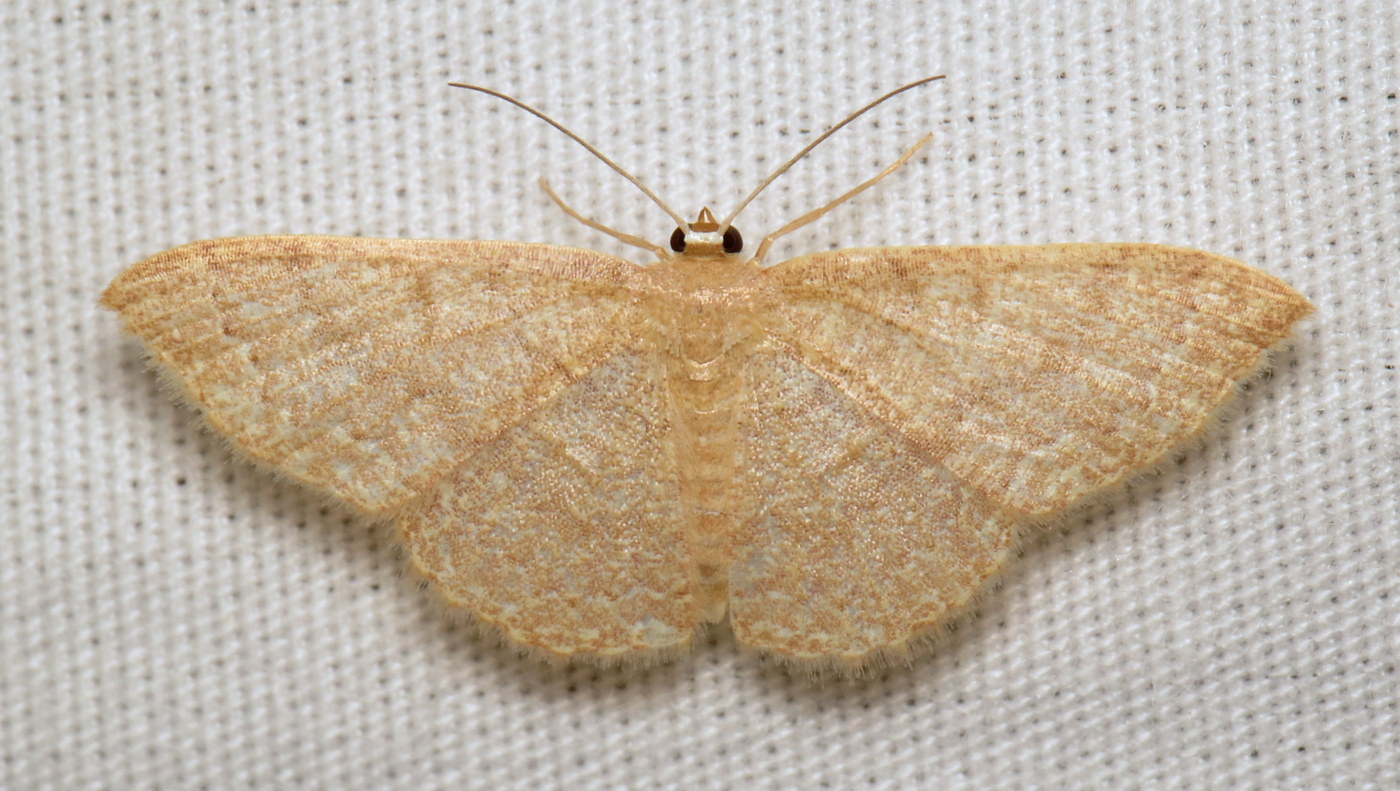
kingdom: Animalia
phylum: Arthropoda
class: Insecta
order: Lepidoptera
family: Geometridae
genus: Pleuroprucha
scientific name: Pleuroprucha insulsaria
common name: Common tan wave
